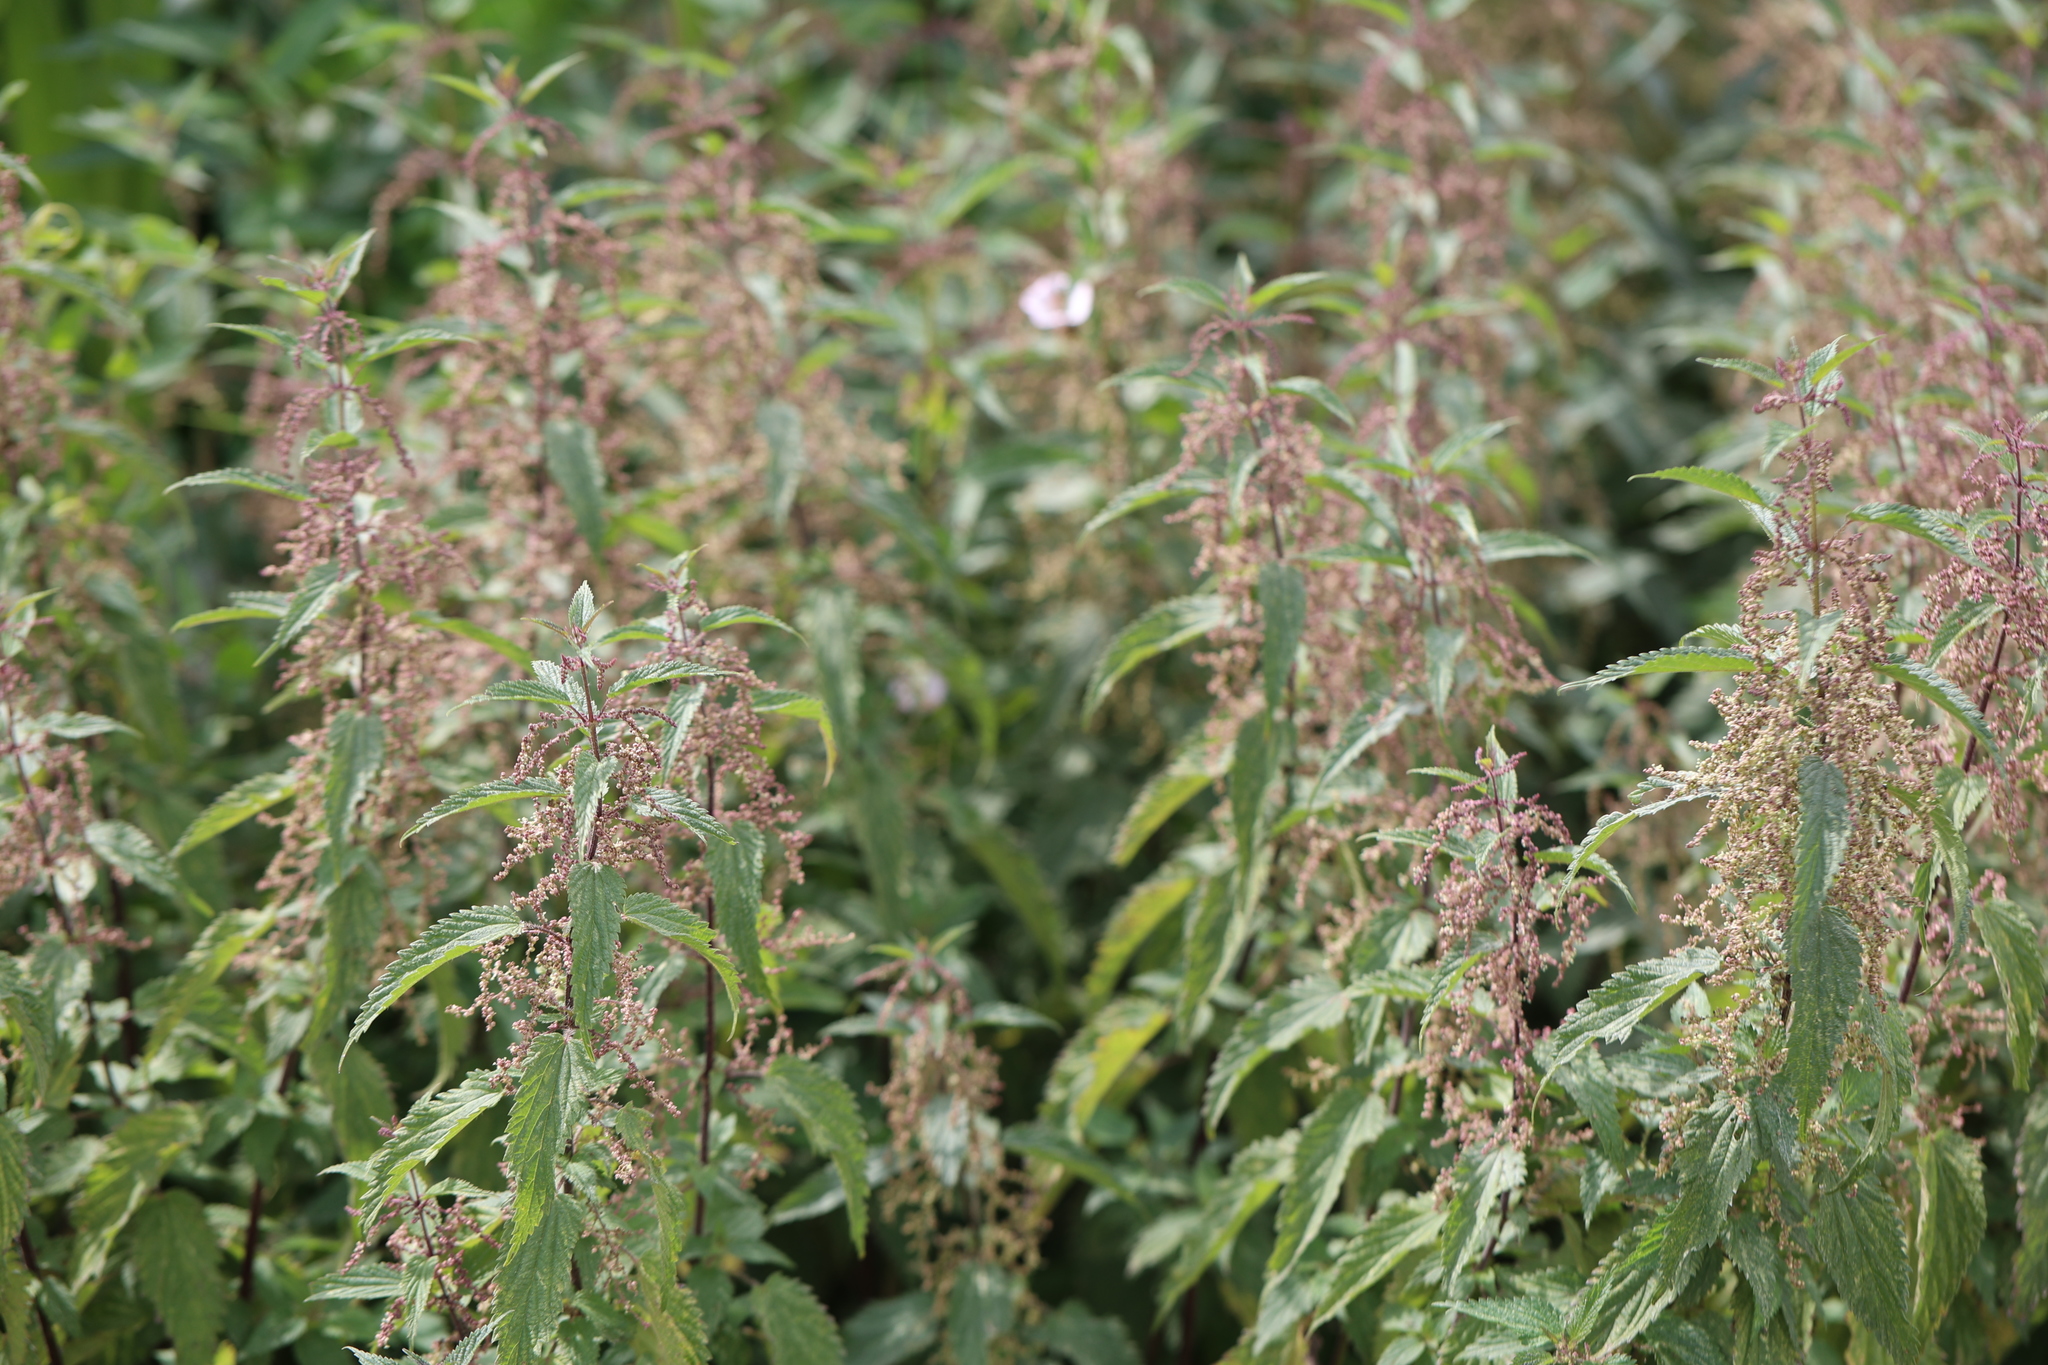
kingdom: Plantae
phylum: Tracheophyta
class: Magnoliopsida
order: Rosales
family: Urticaceae
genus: Urtica
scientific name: Urtica dioica
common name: Common nettle
